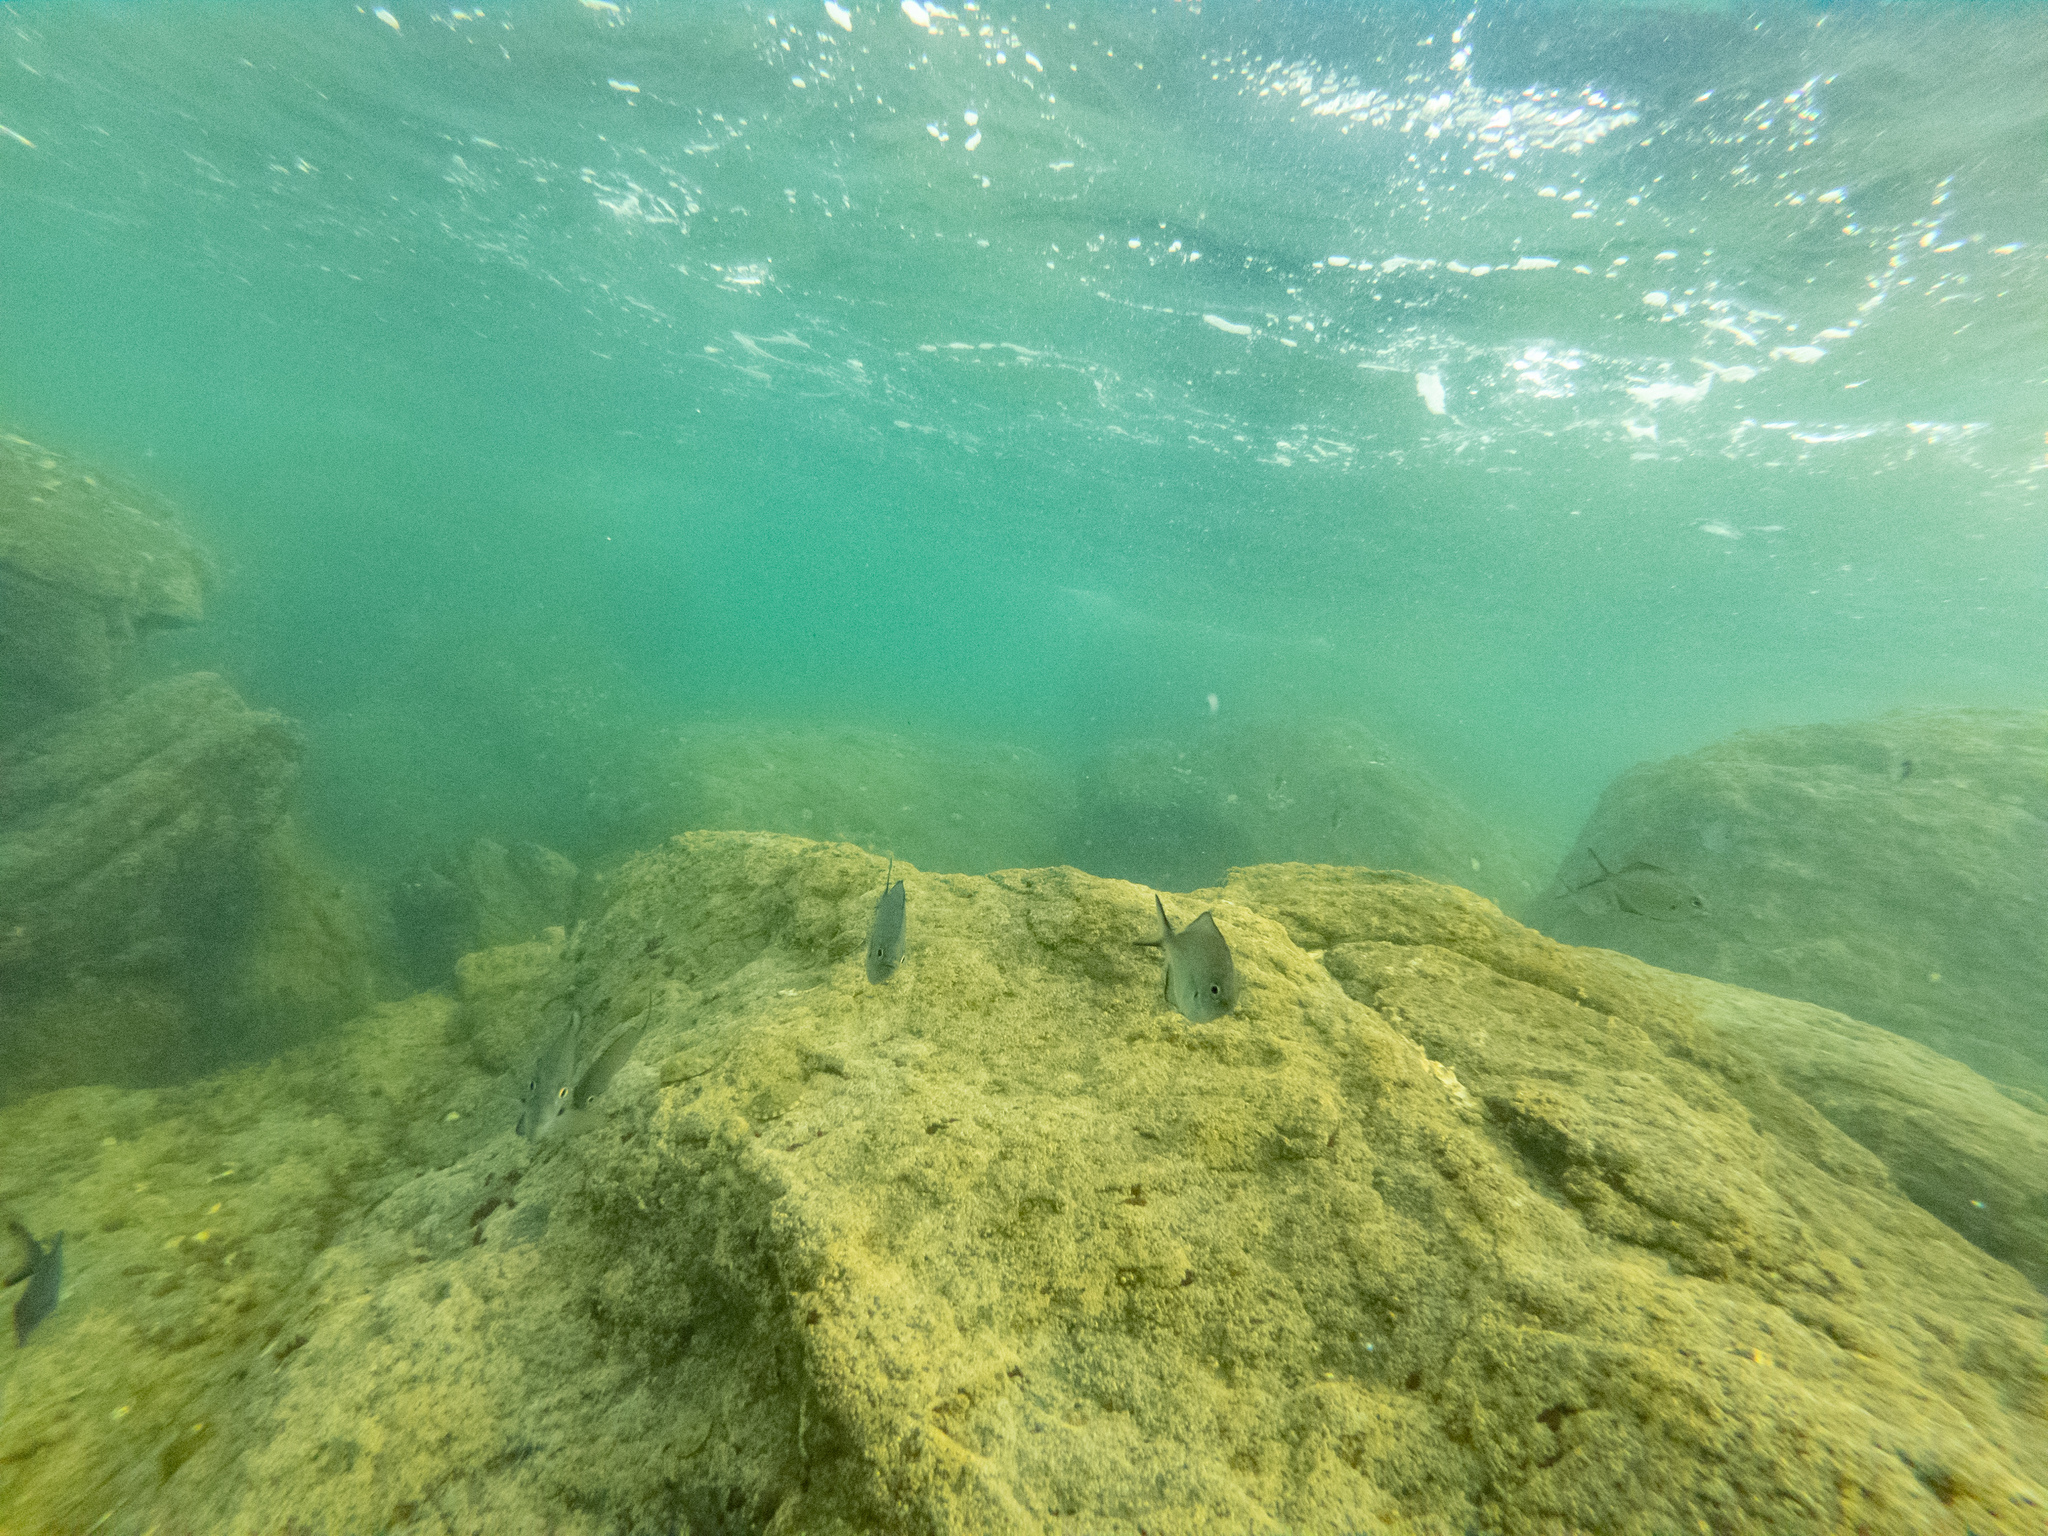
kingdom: Animalia
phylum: Chordata
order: Perciformes
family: Kyphosidae
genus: Scorpis
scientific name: Scorpis lineolata
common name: Sweep
